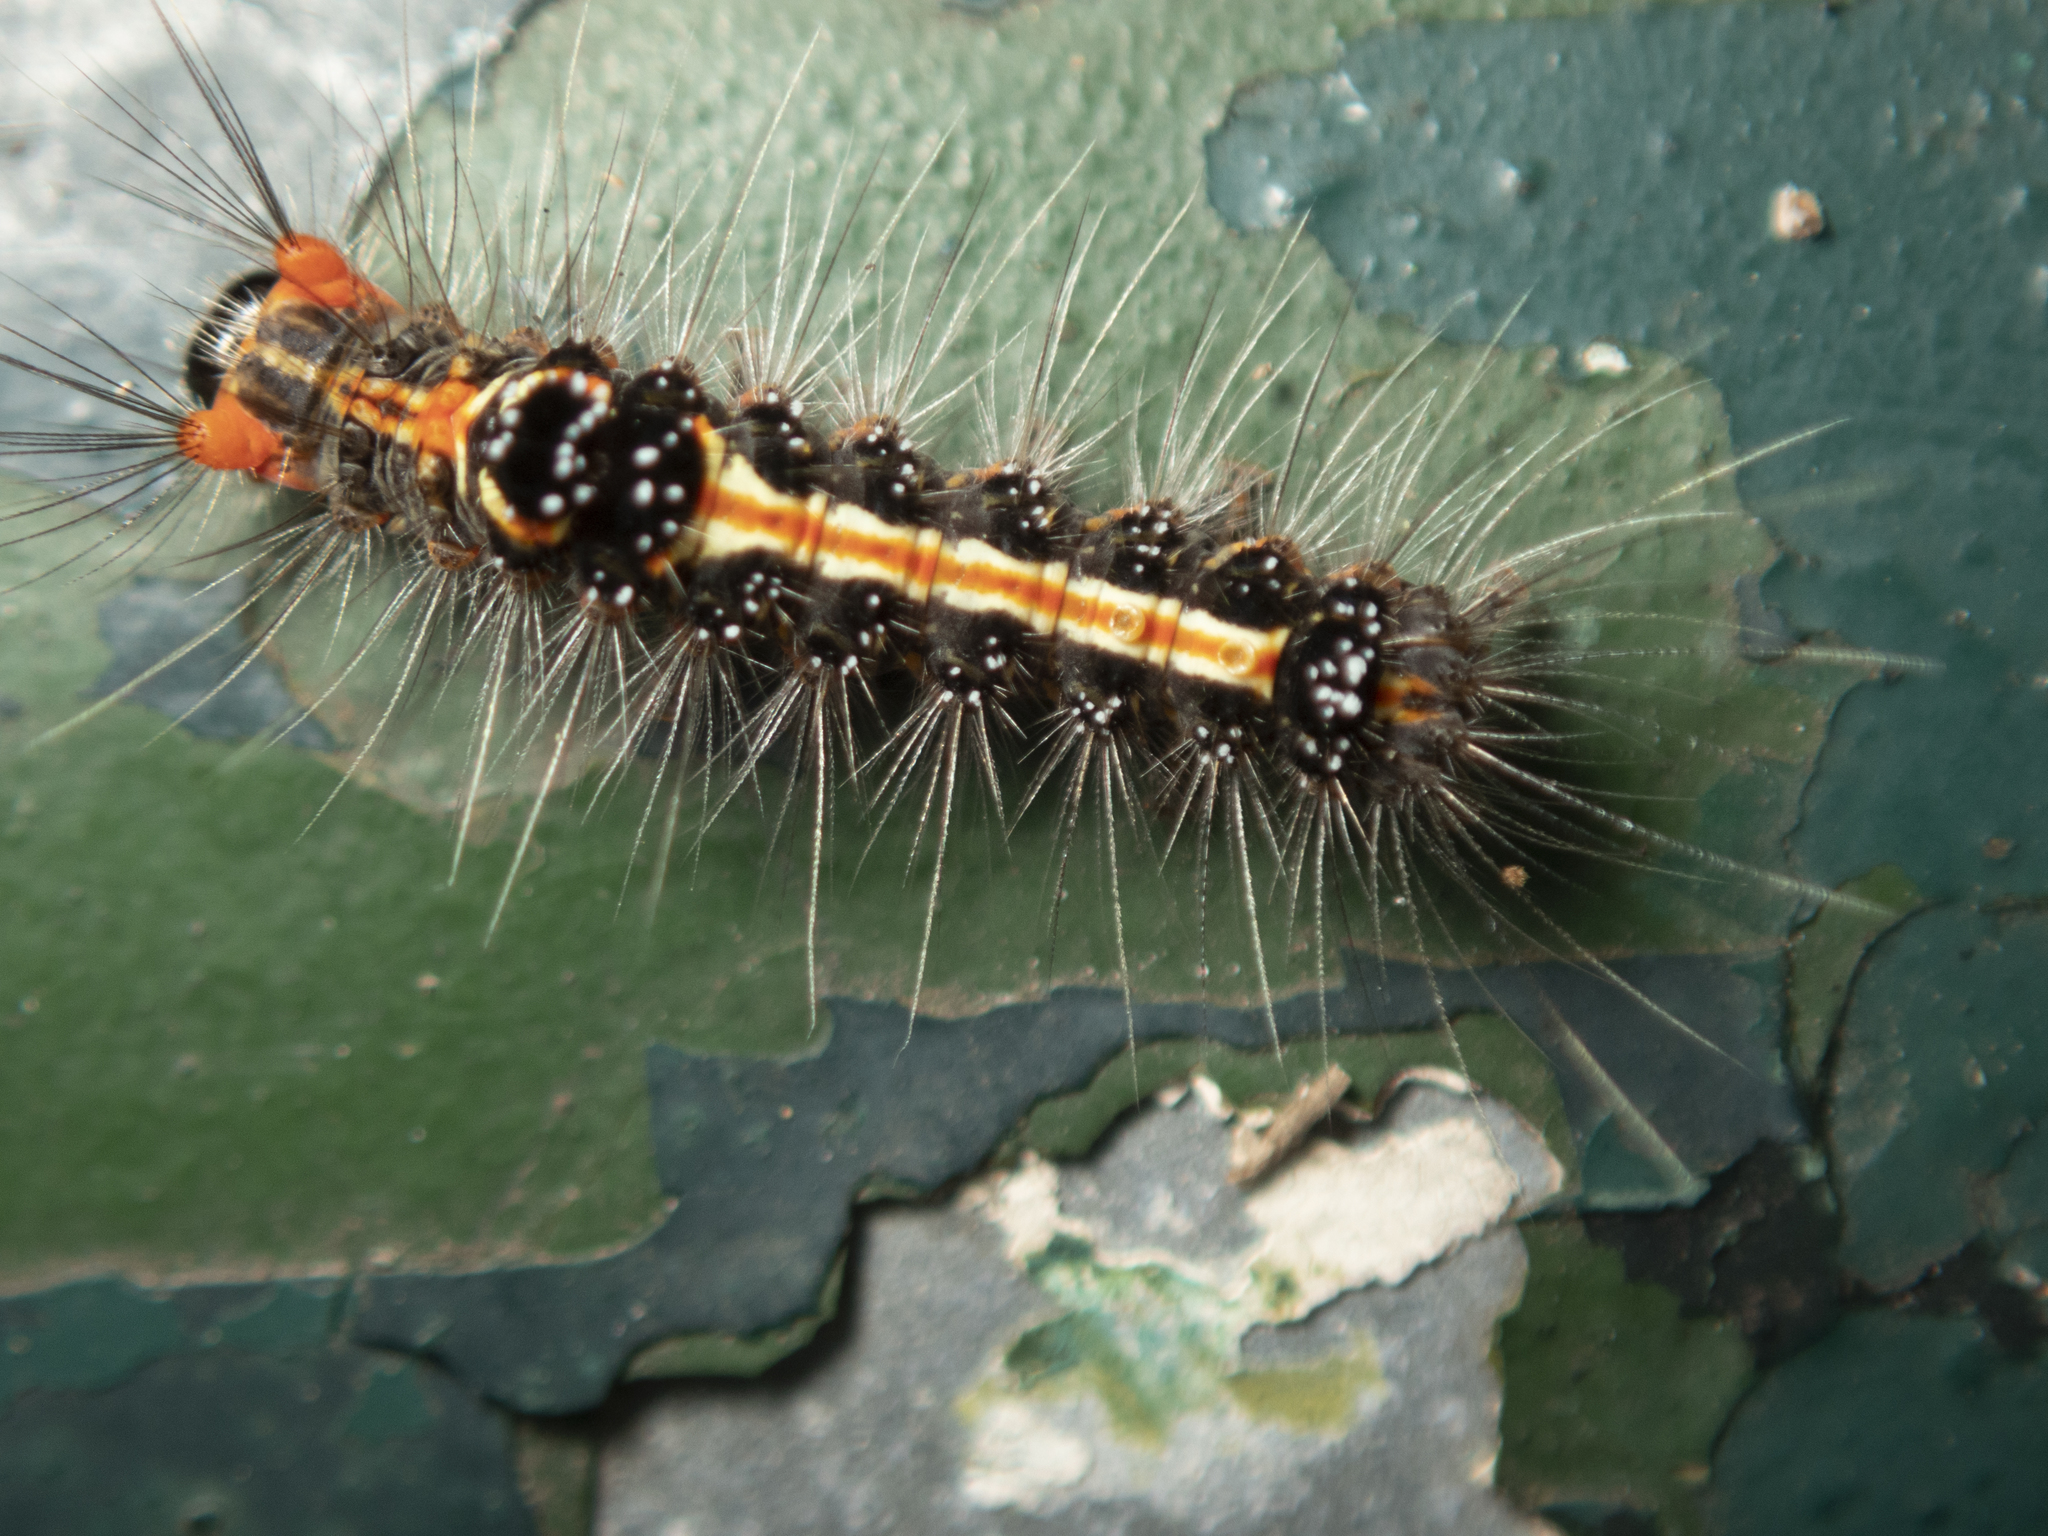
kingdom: Animalia
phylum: Arthropoda
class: Insecta
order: Lepidoptera
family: Erebidae
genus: Orvasca
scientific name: Orvasca subnotata
